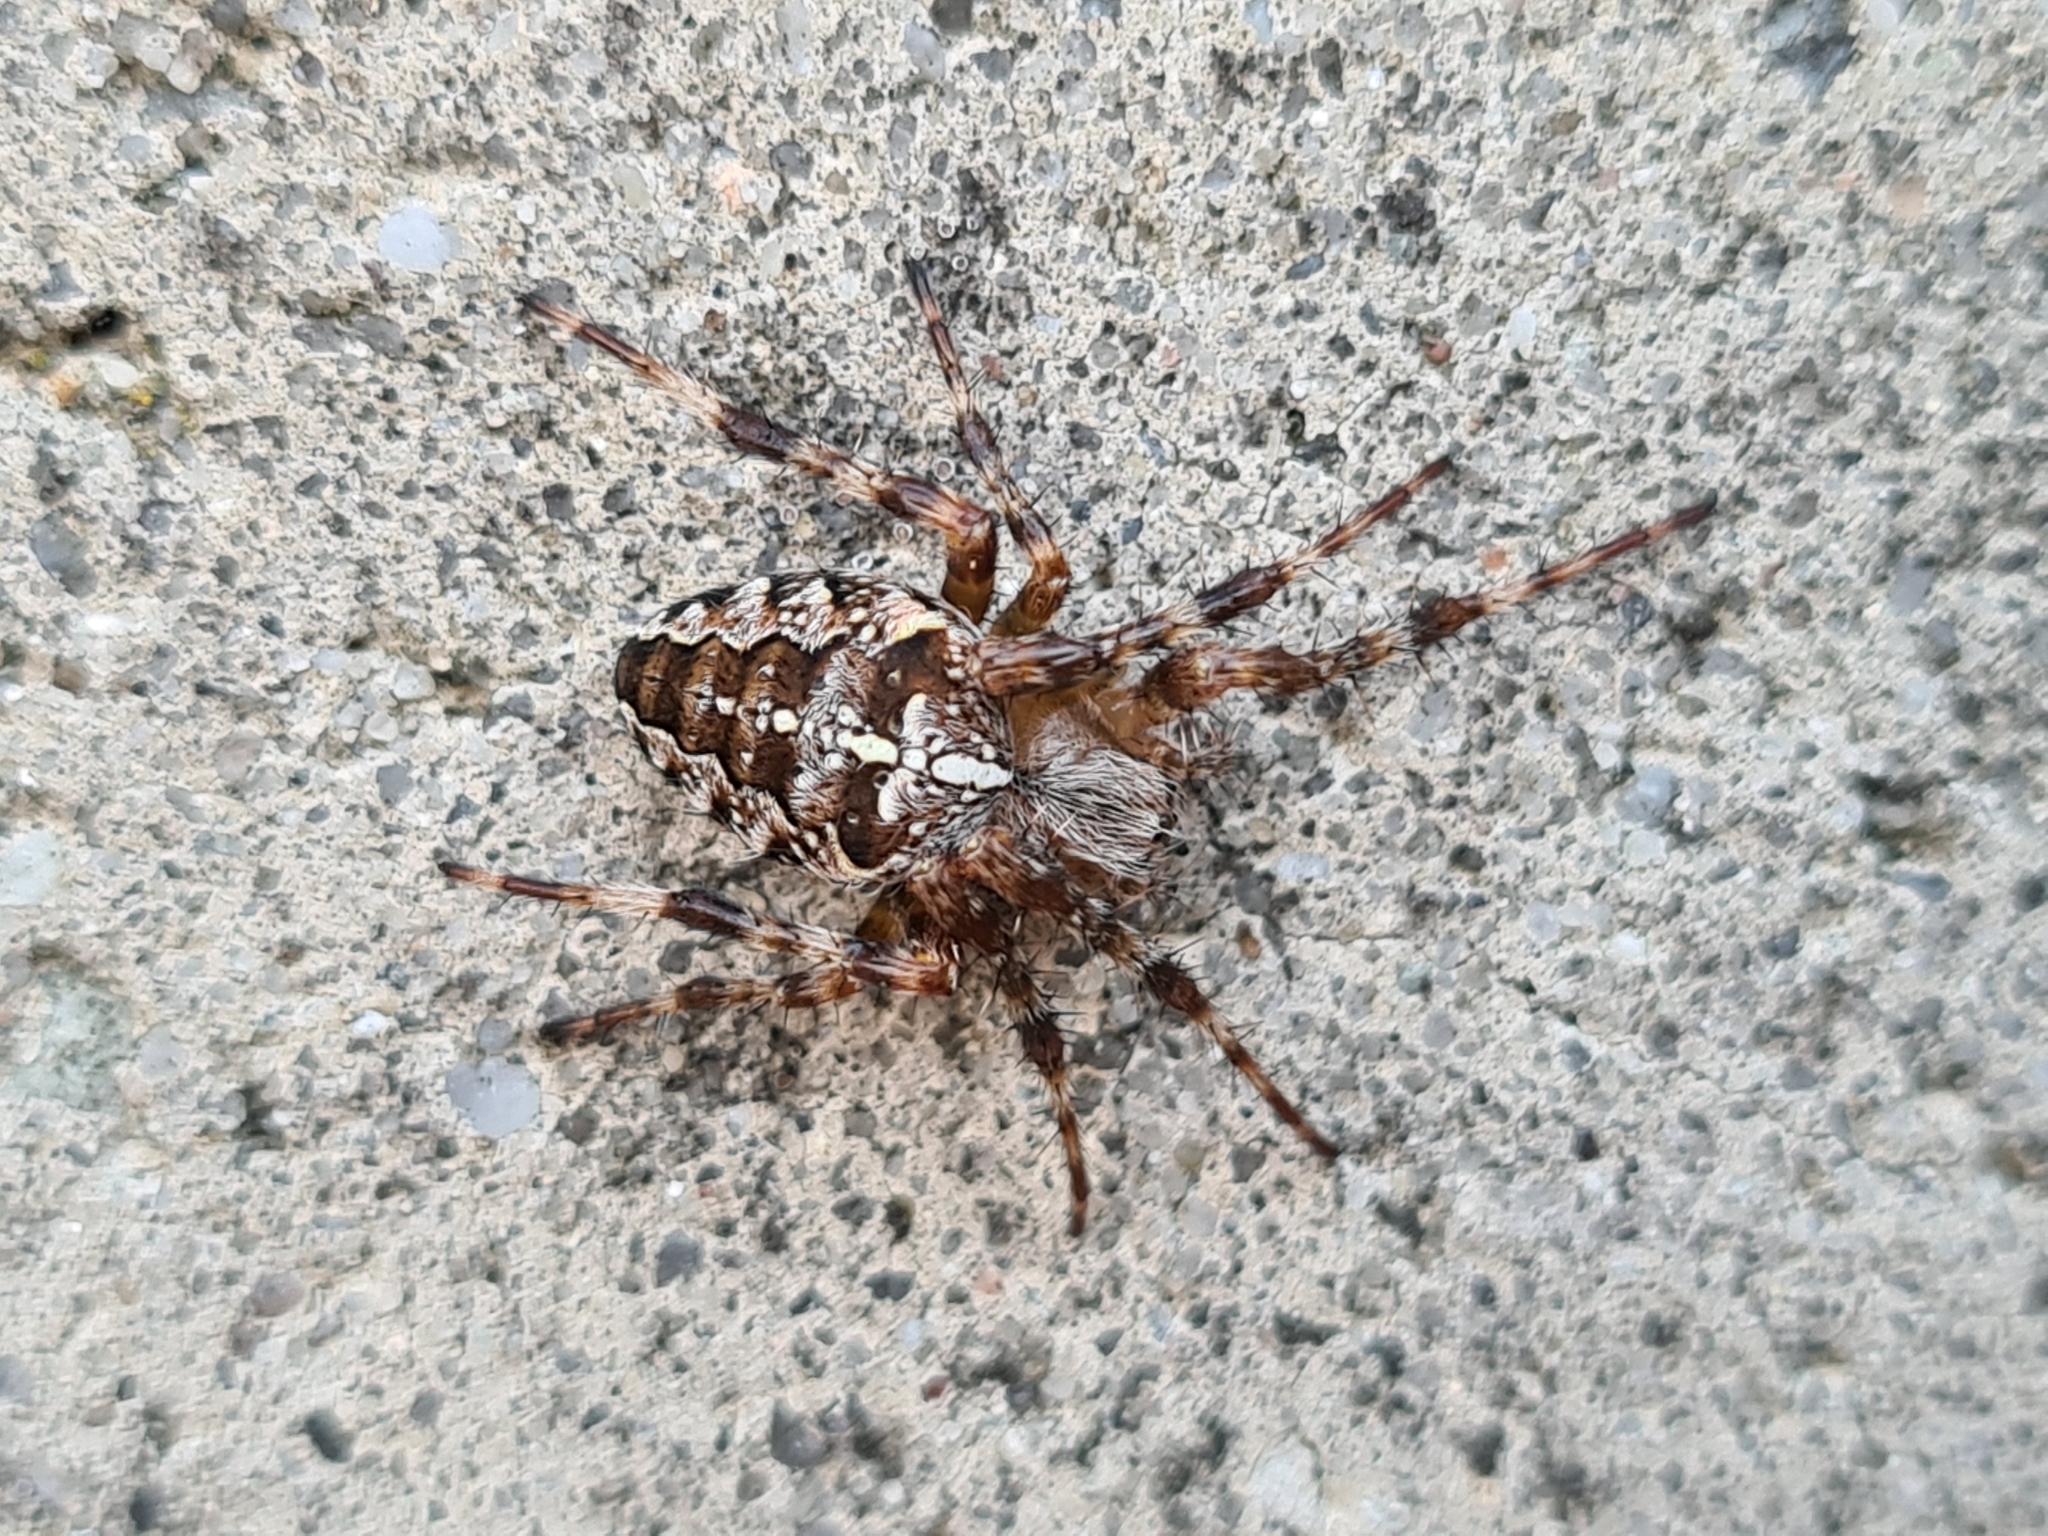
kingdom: Animalia
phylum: Arthropoda
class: Arachnida
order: Araneae
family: Araneidae
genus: Araneus
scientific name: Araneus diadematus
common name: Cross orbweaver
